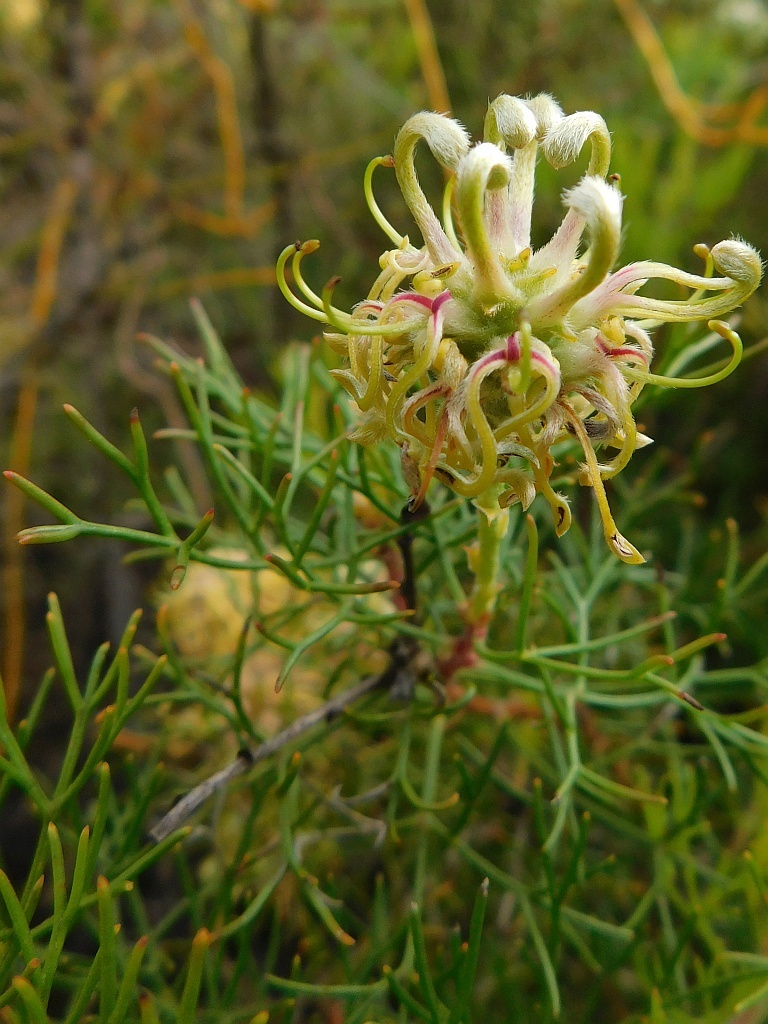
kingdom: Plantae
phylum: Tracheophyta
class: Magnoliopsida
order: Proteales
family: Proteaceae
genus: Serruria
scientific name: Serruria
